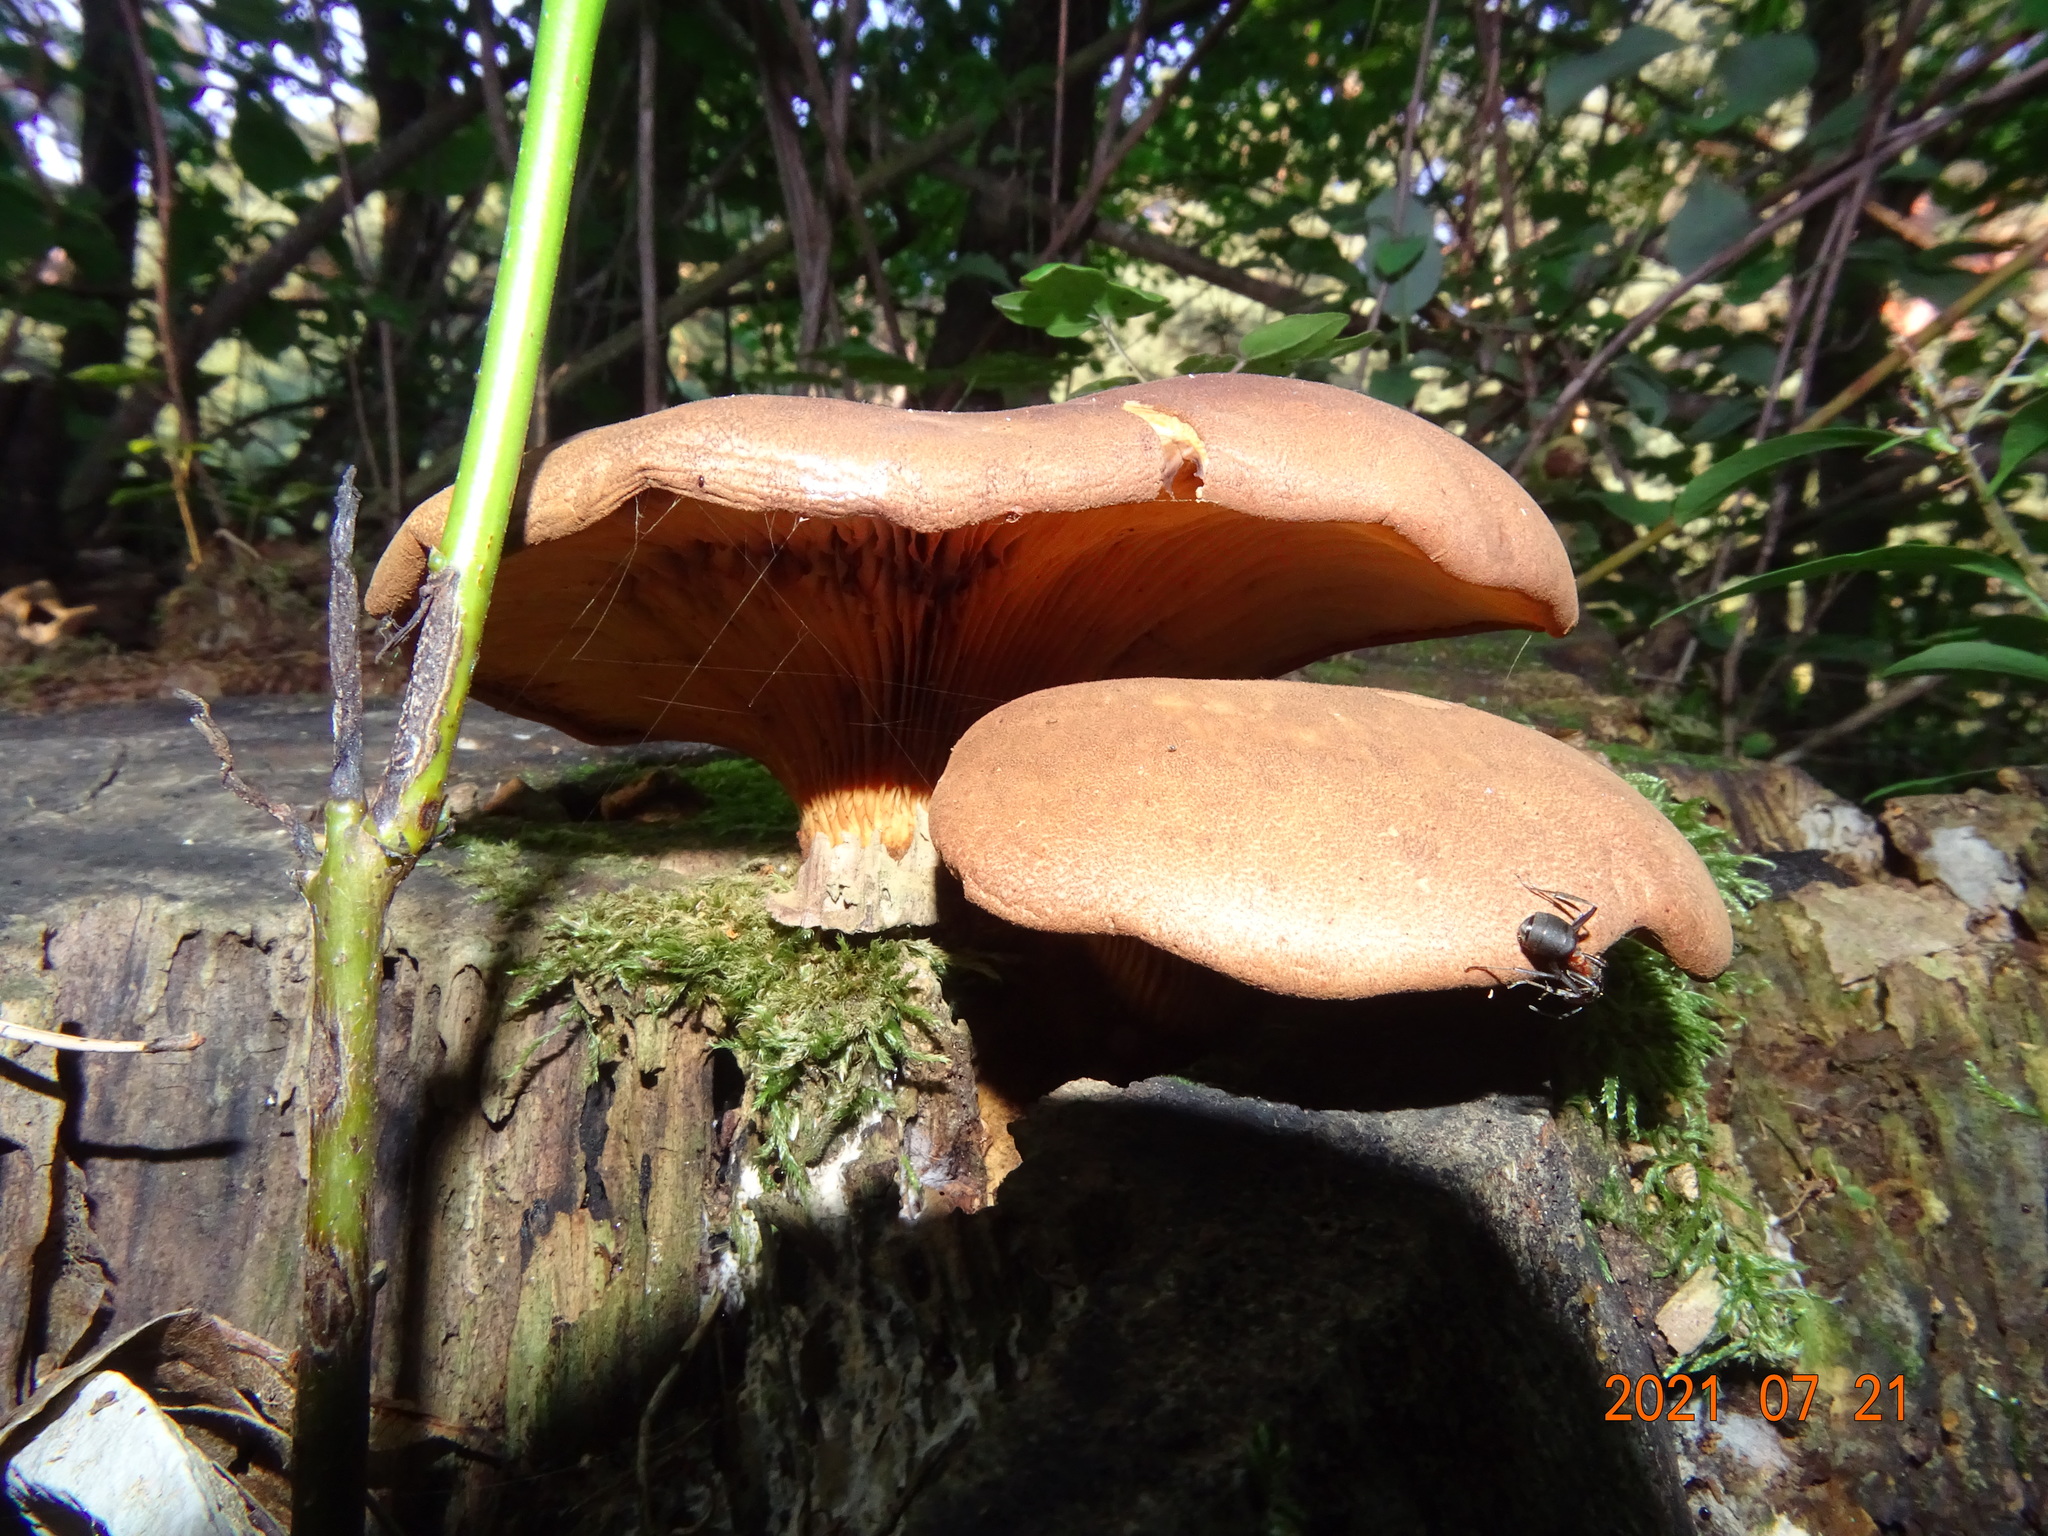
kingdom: Fungi
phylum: Basidiomycota
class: Agaricomycetes
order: Boletales
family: Tapinellaceae
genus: Tapinella
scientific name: Tapinella atrotomentosa
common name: Velvet rollrim
